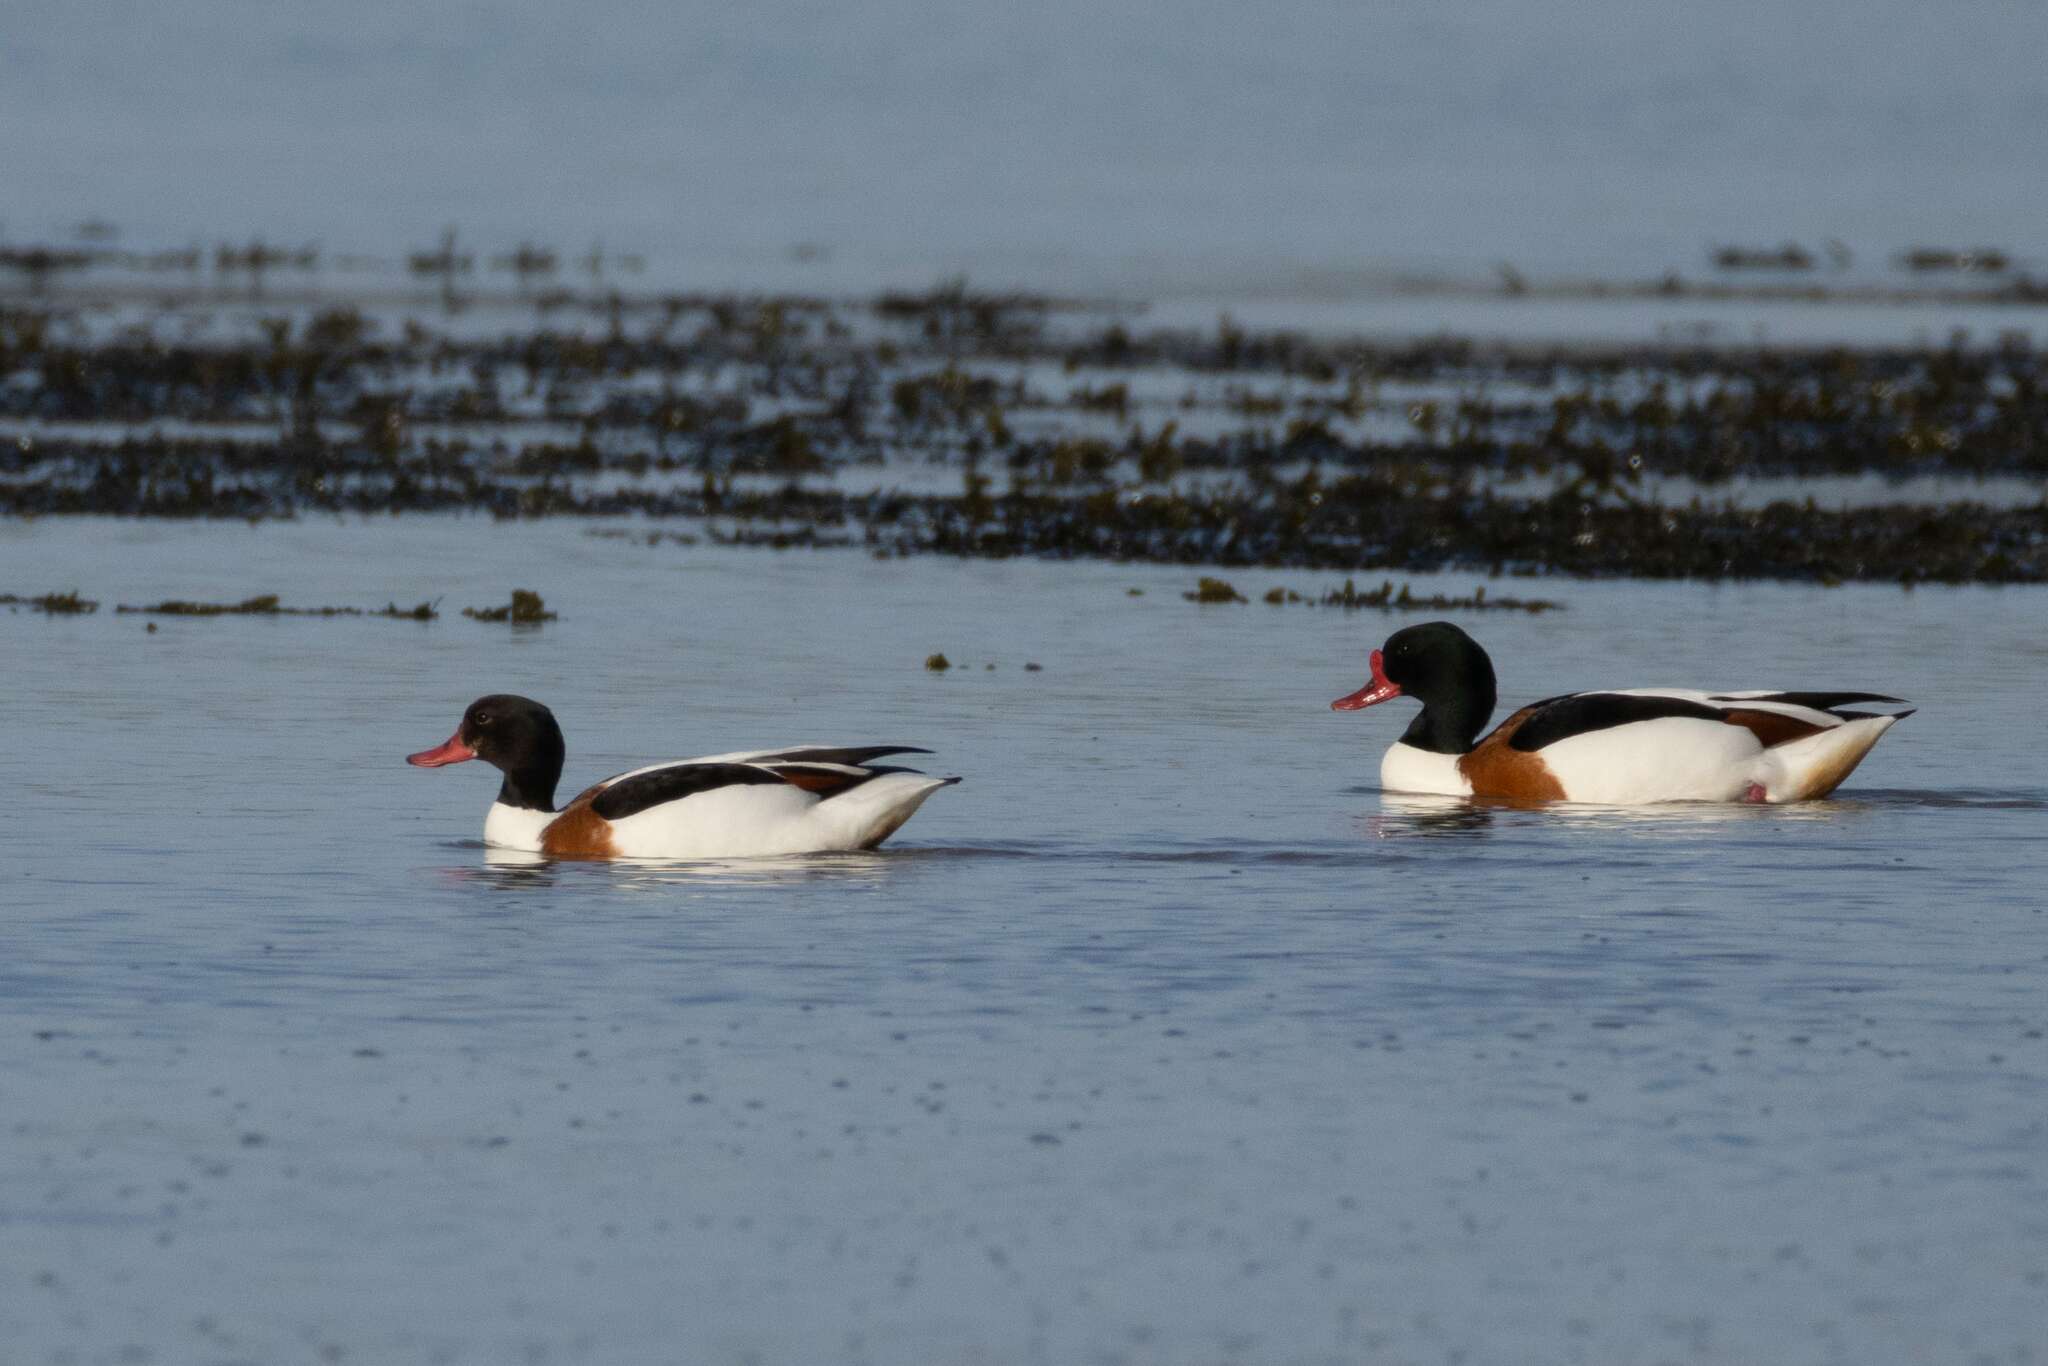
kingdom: Animalia
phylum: Chordata
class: Aves
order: Anseriformes
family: Anatidae
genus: Tadorna
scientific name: Tadorna tadorna
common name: Common shelduck
